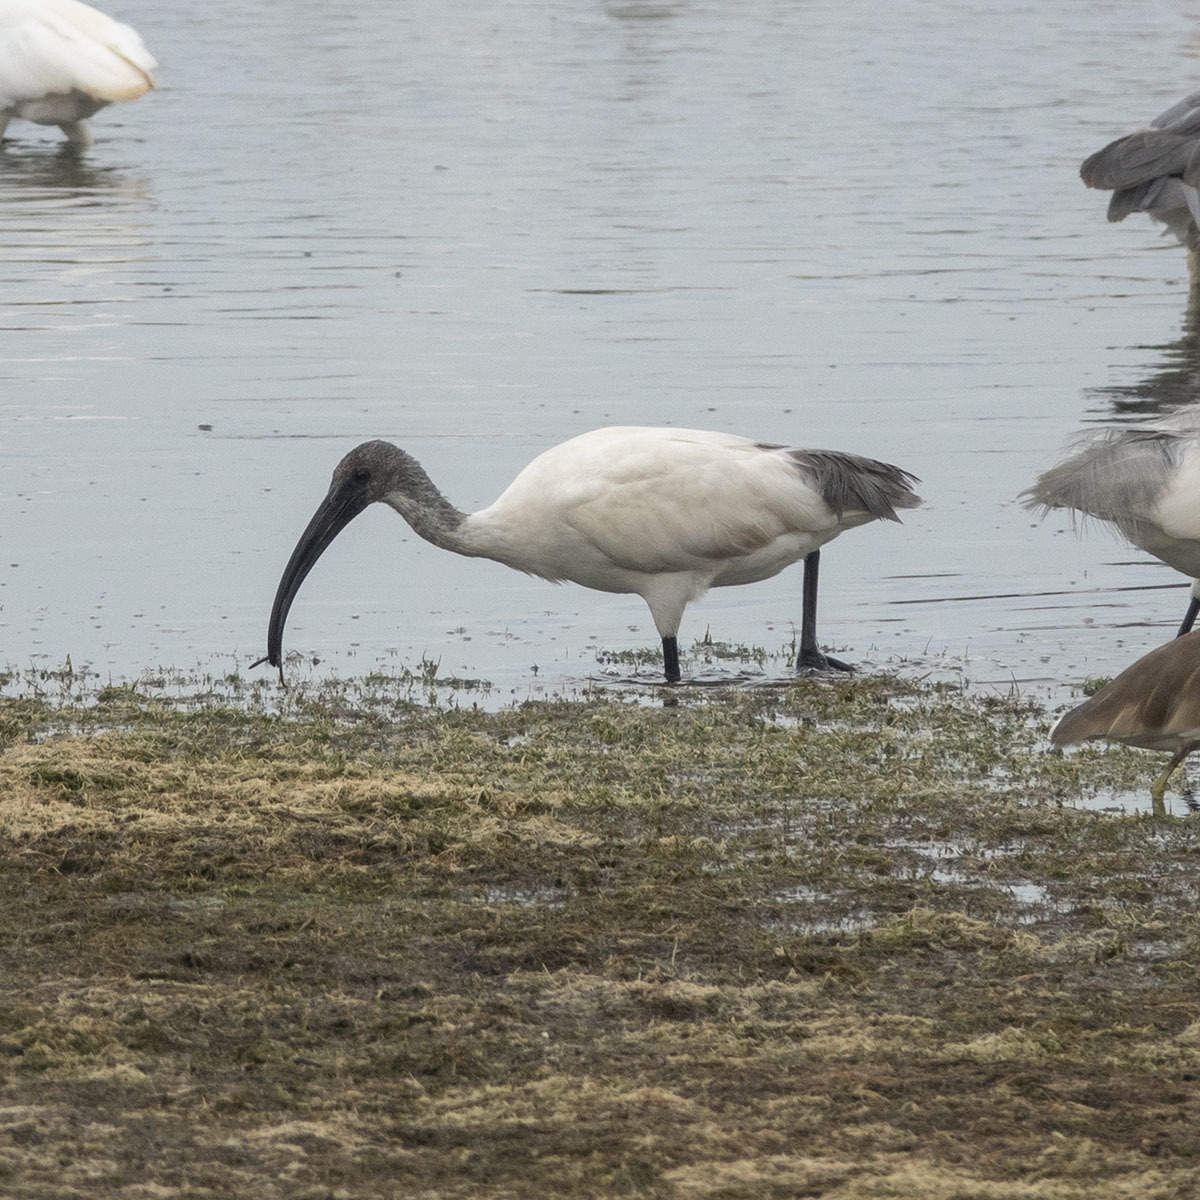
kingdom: Animalia
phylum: Chordata
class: Aves
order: Pelecaniformes
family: Threskiornithidae
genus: Threskiornis
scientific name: Threskiornis melanocephalus
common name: Black-headed ibis
